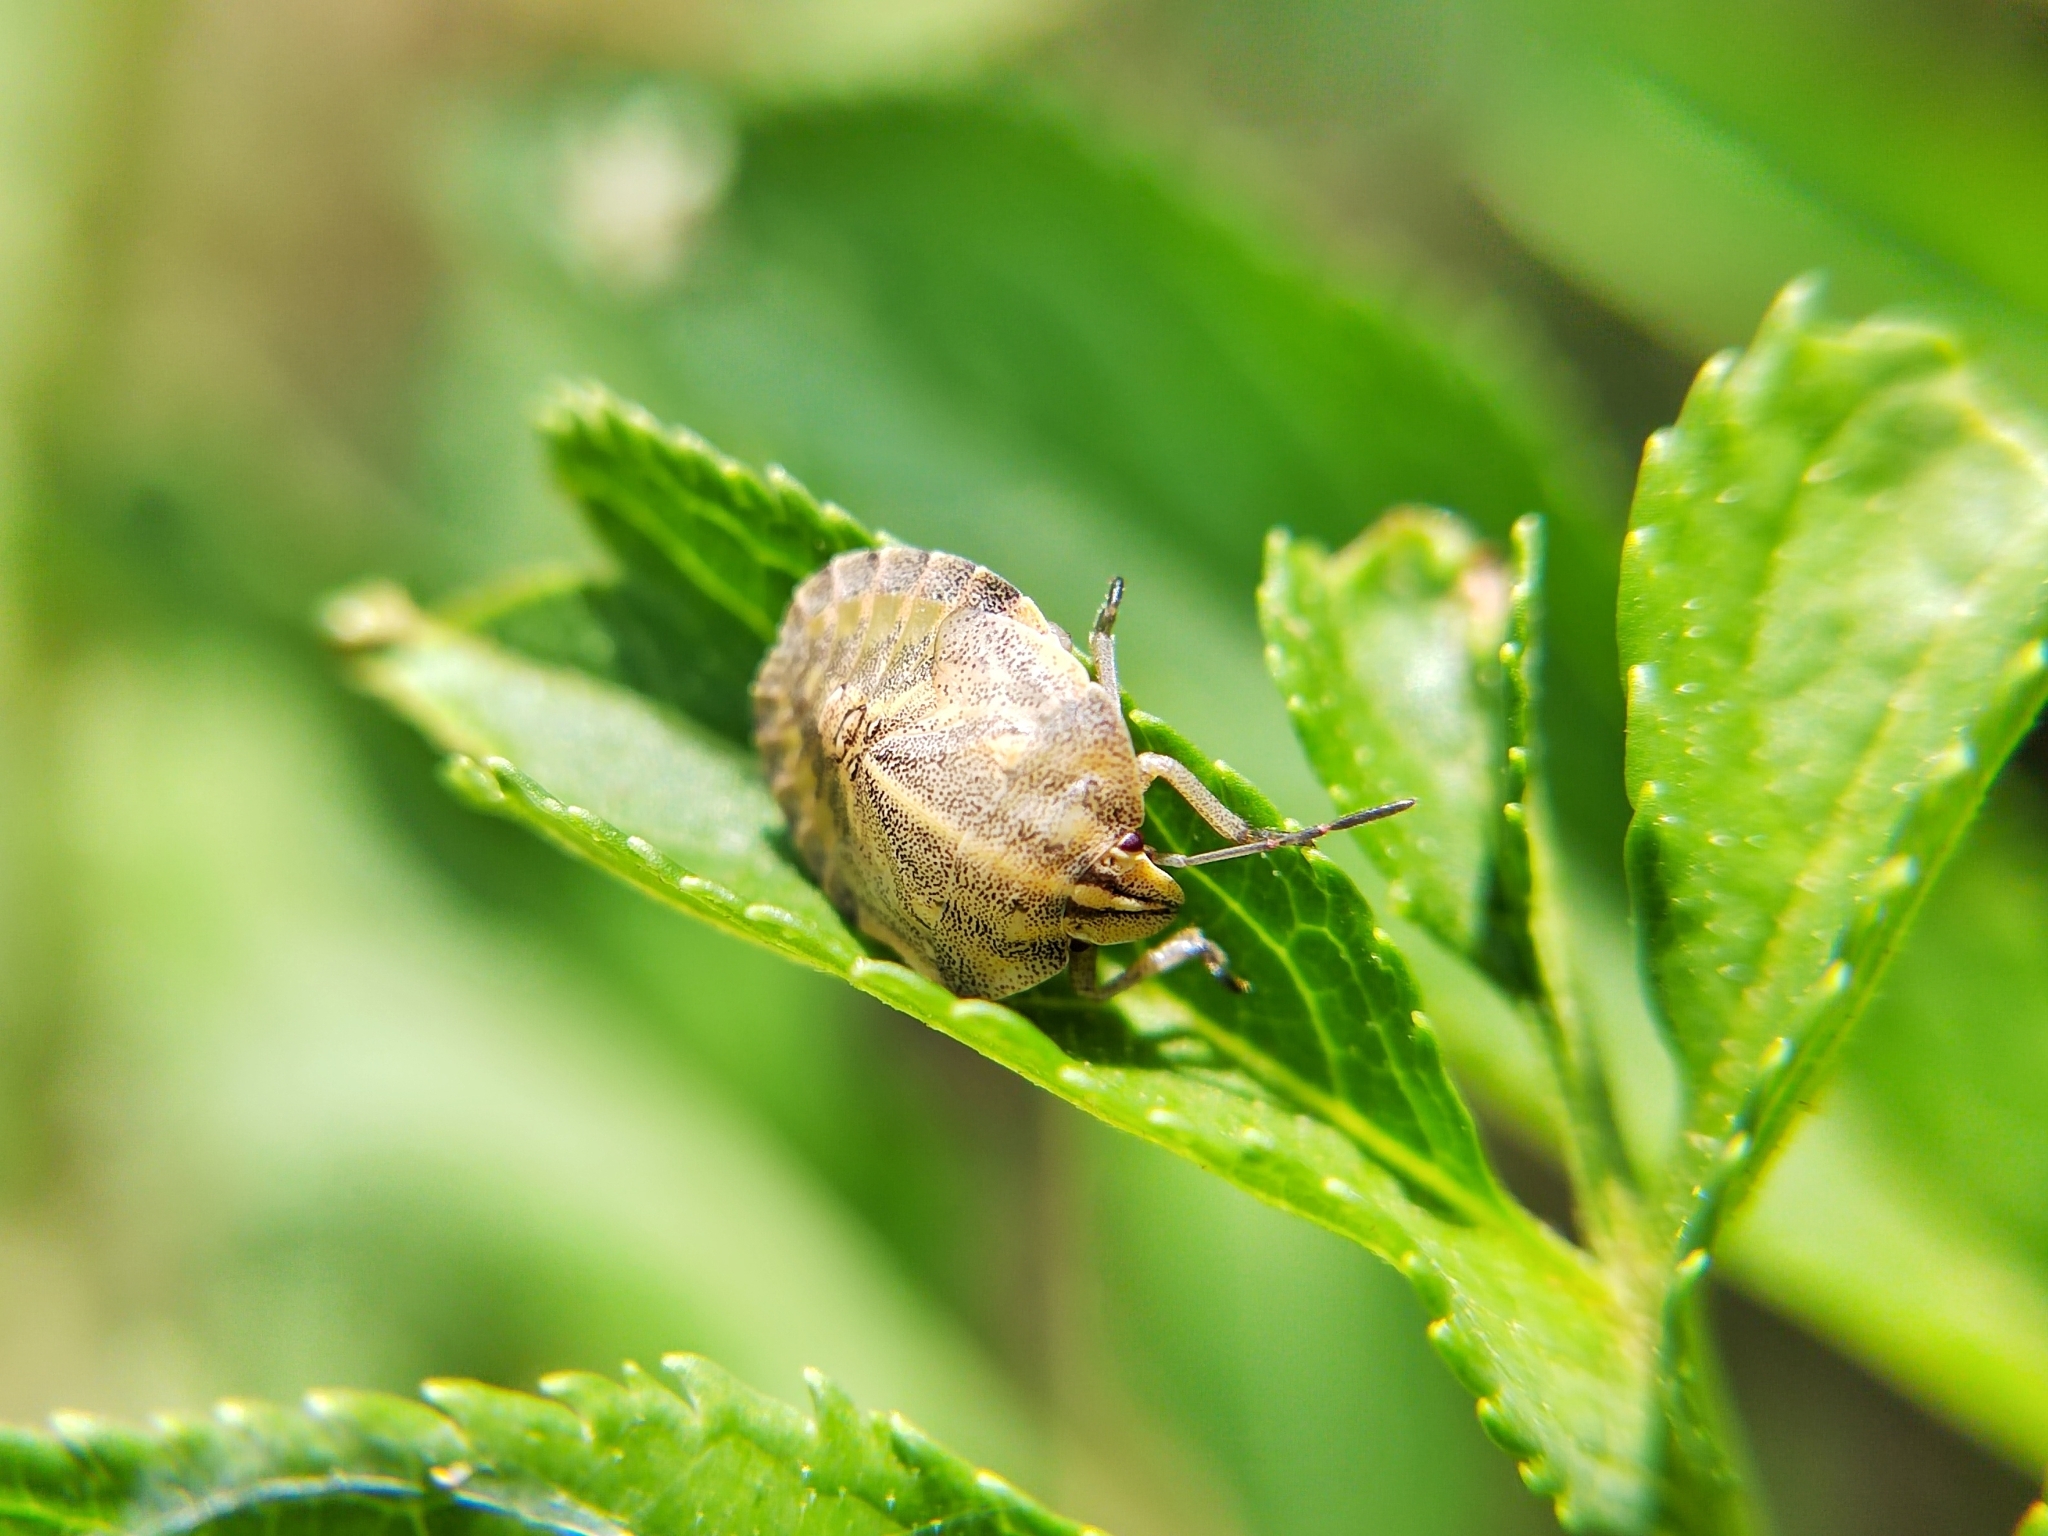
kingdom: Animalia
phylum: Arthropoda
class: Insecta
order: Hemiptera
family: Pentatomidae
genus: Graphosoma
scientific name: Graphosoma italicum
